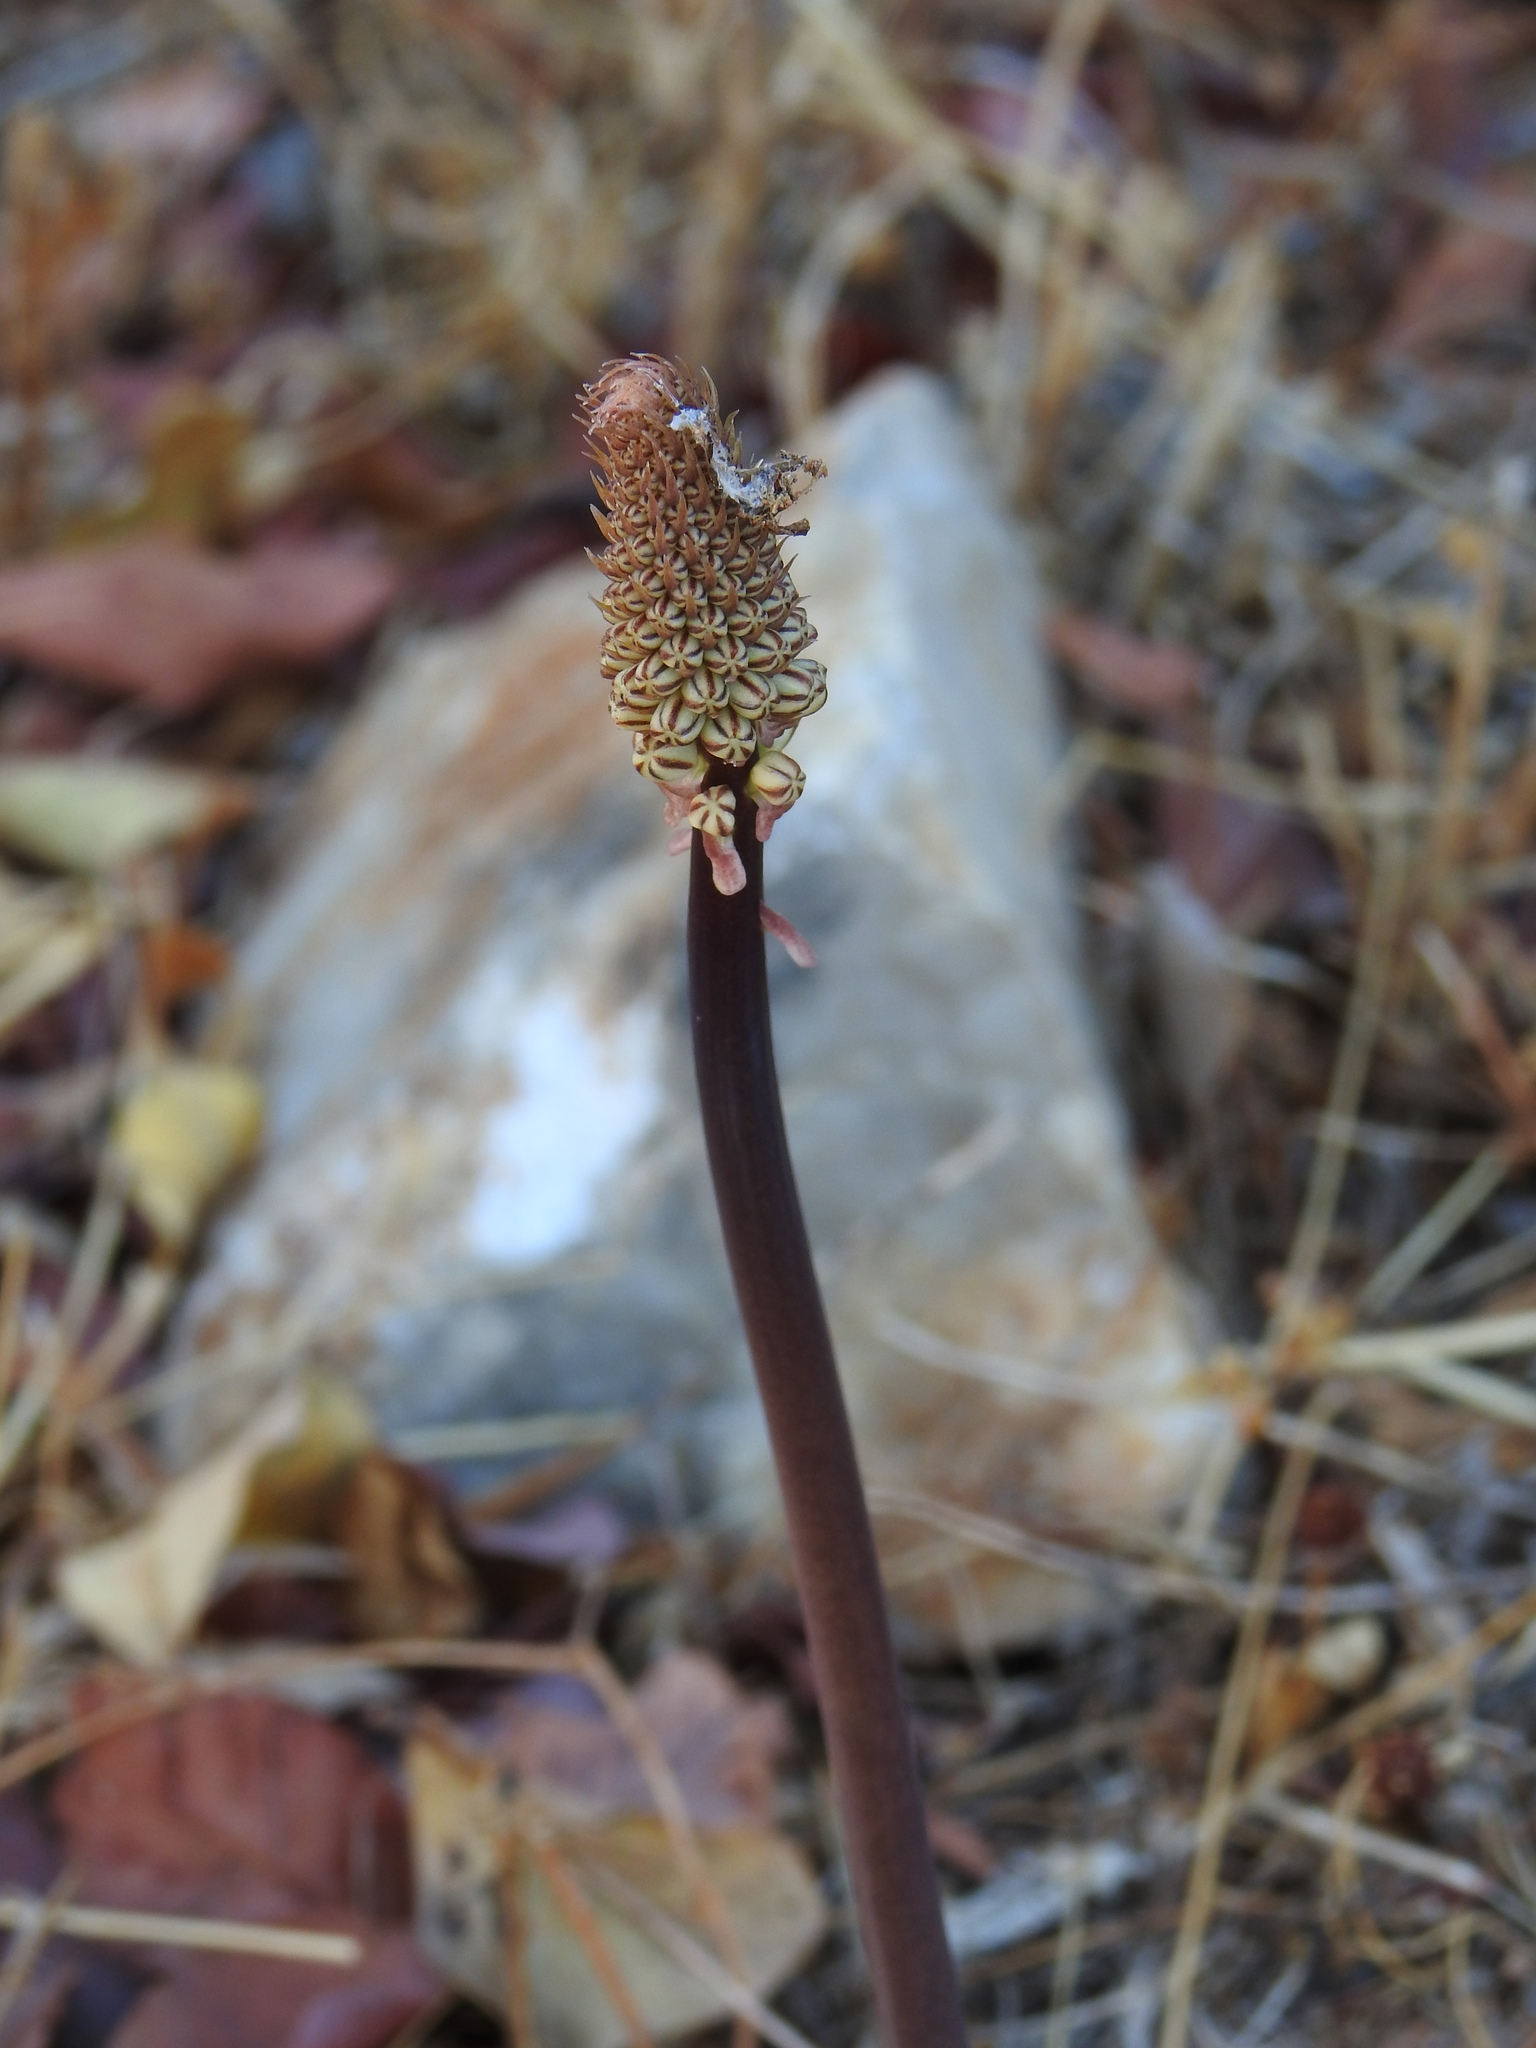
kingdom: Plantae
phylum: Tracheophyta
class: Liliopsida
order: Asparagales
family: Asparagaceae
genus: Drimia
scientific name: Drimia maritima
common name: Maritime squill
